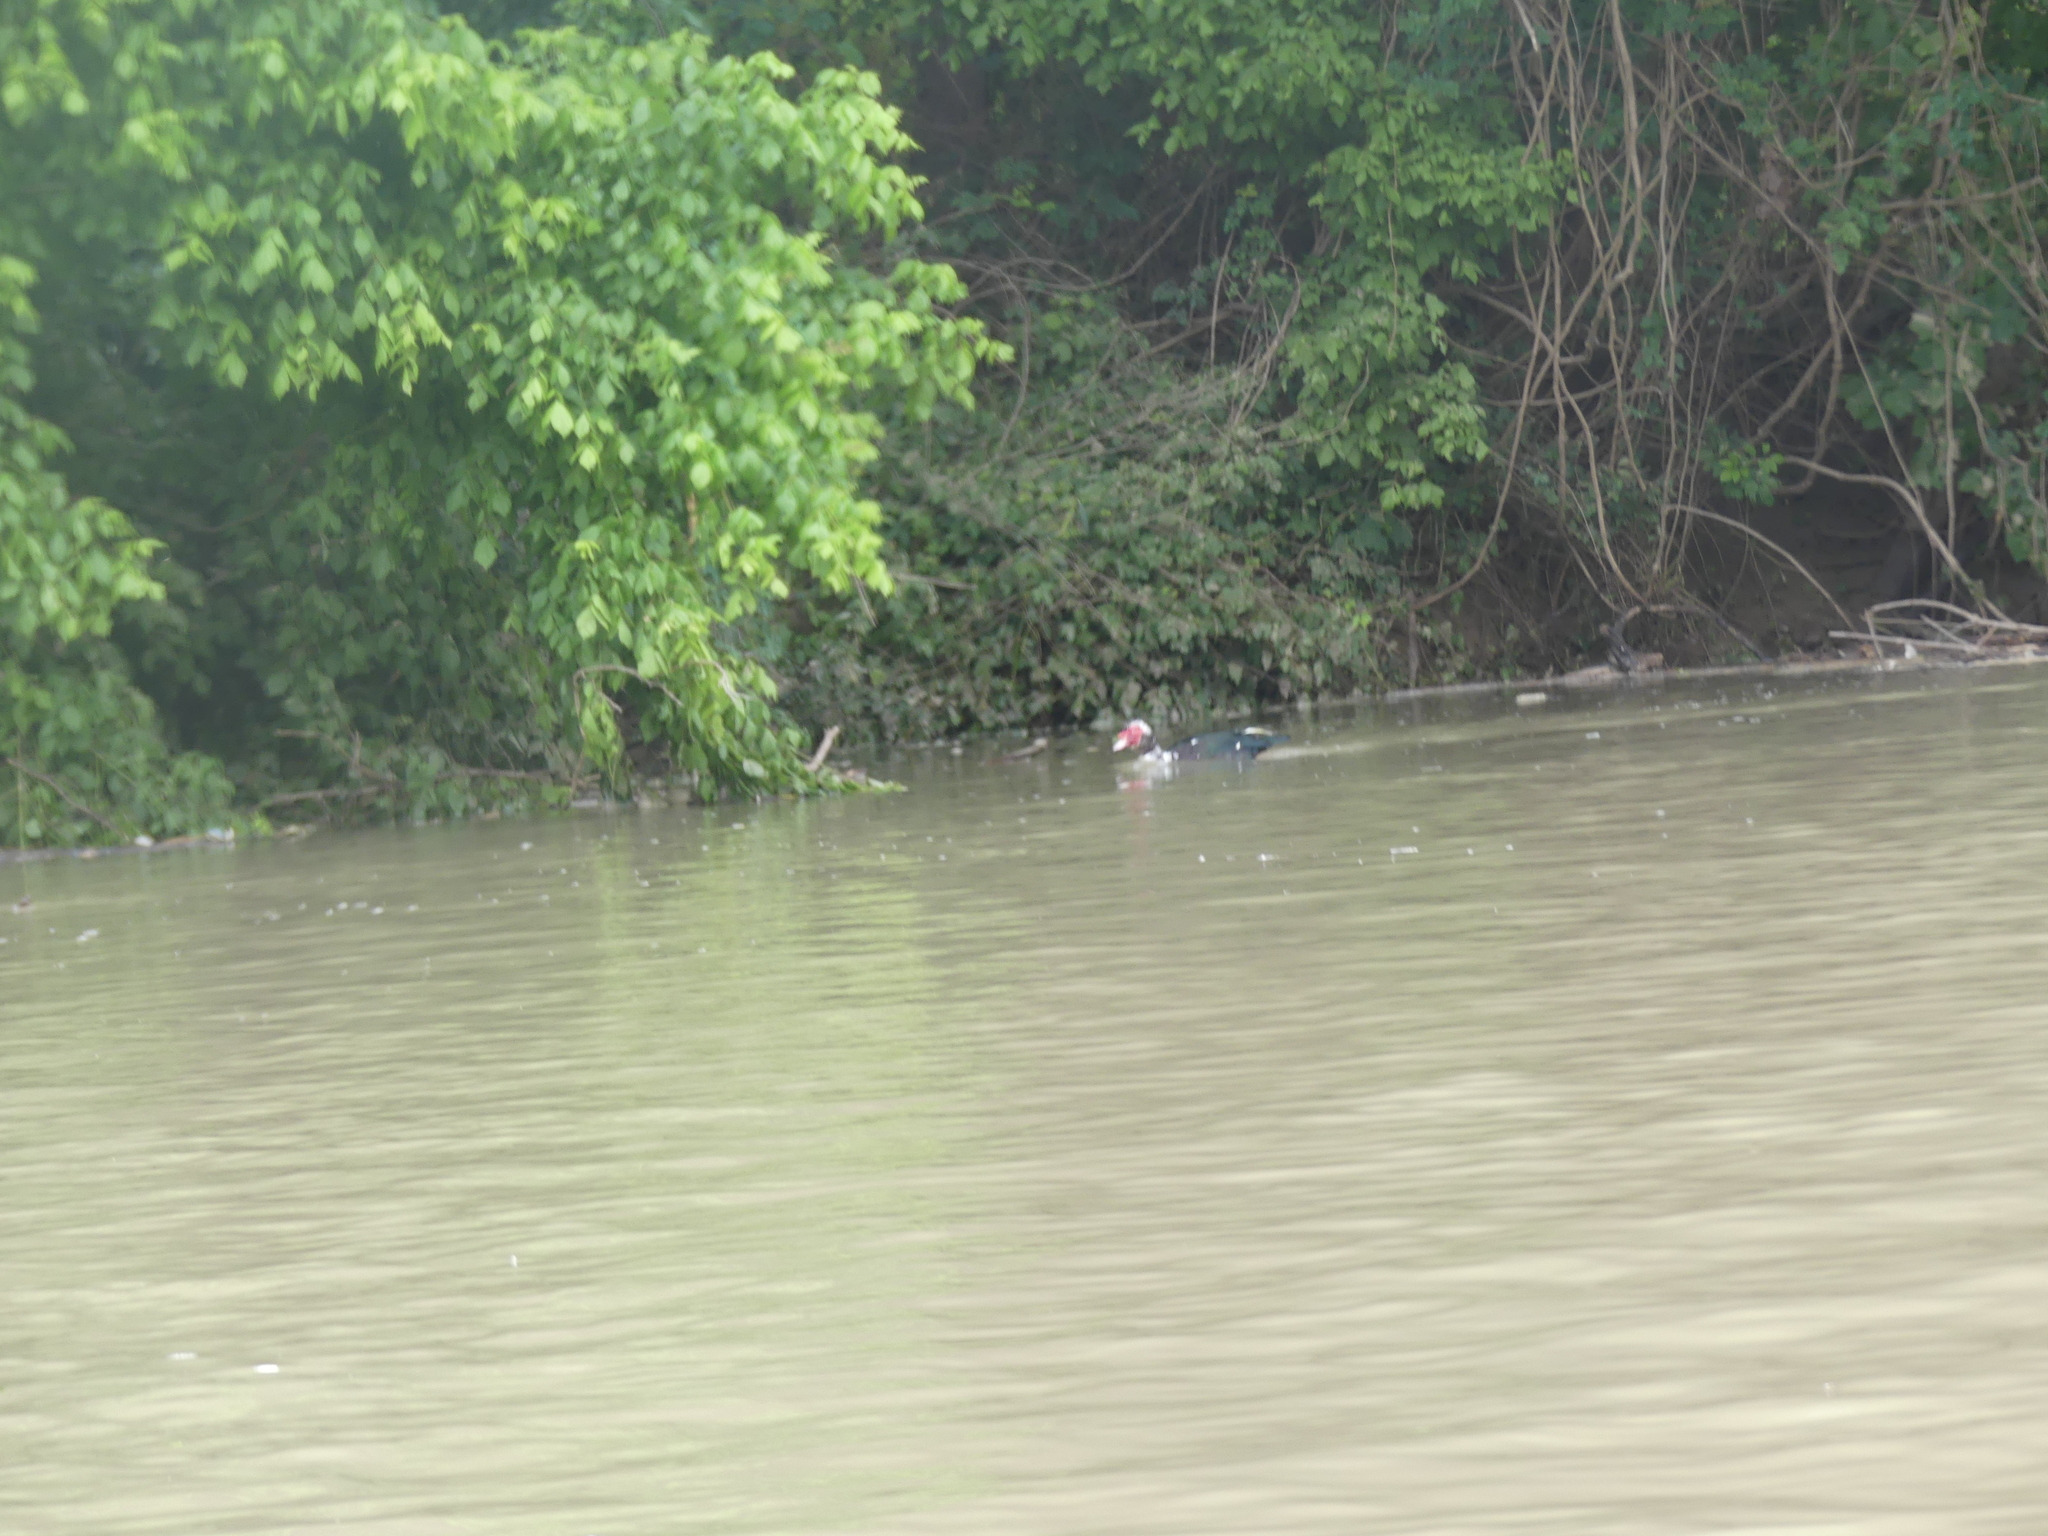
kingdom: Animalia
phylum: Chordata
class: Aves
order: Anseriformes
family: Anatidae
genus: Cairina
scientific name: Cairina moschata
